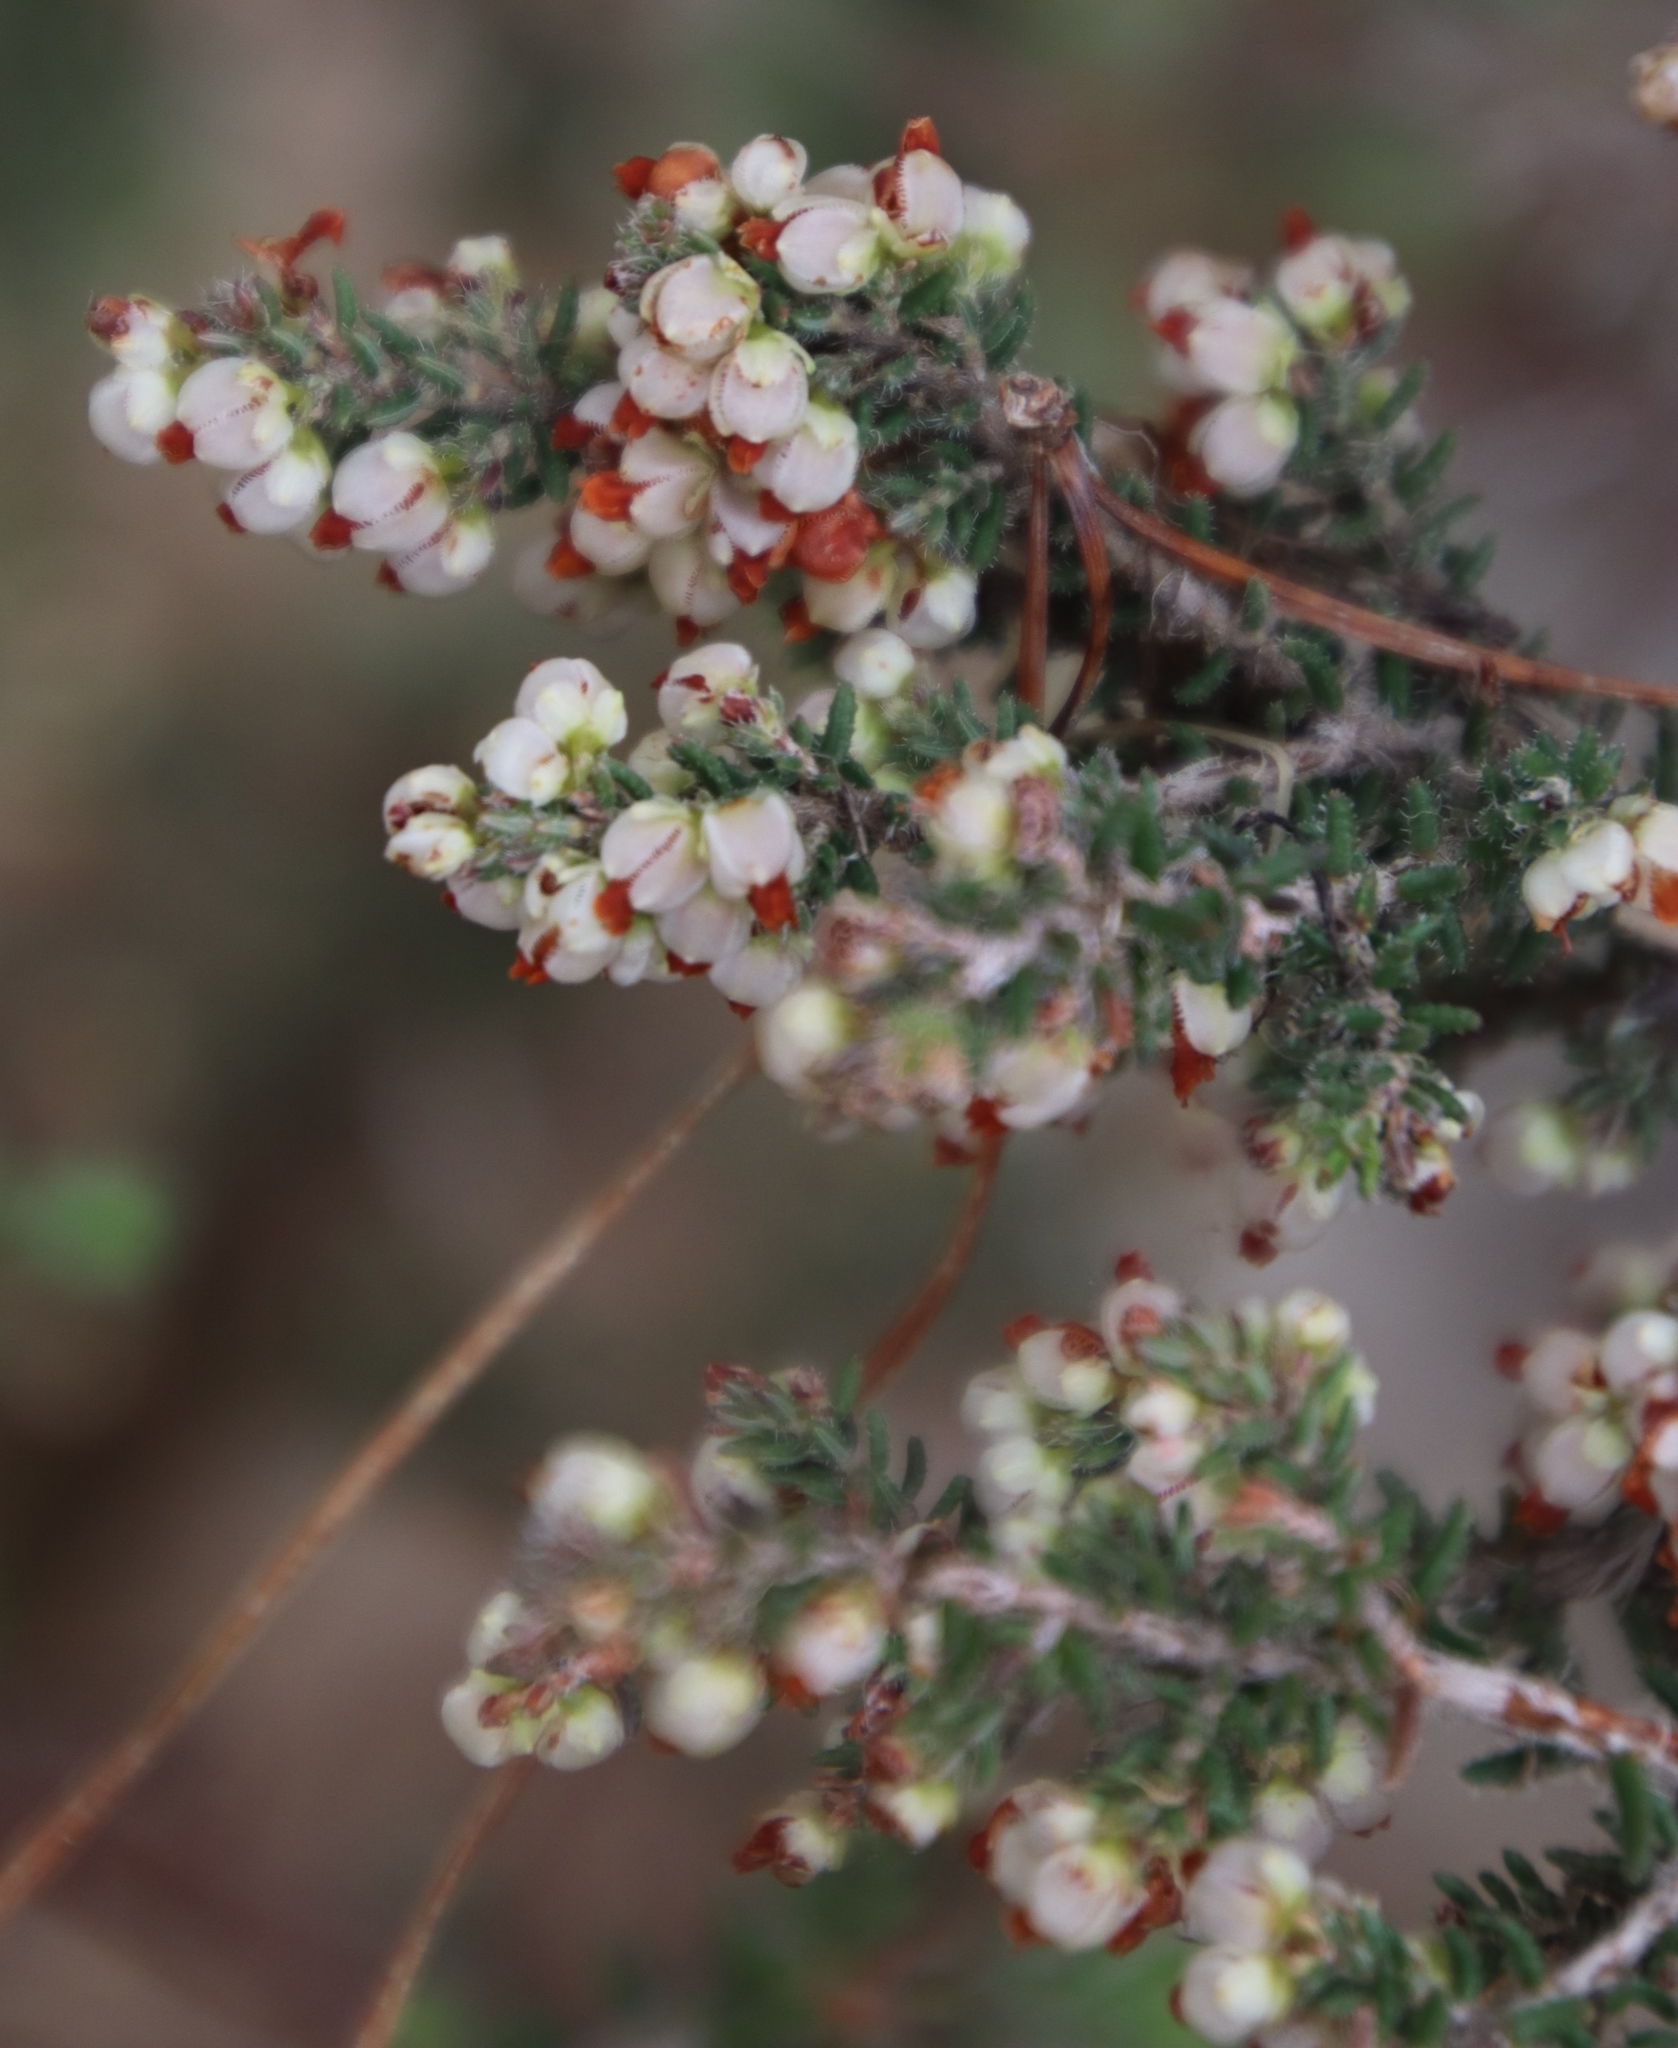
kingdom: Plantae
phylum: Tracheophyta
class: Magnoliopsida
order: Ericales
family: Ericaceae
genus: Erica
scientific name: Erica totta
